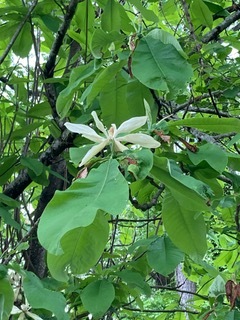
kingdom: Plantae
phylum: Tracheophyta
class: Magnoliopsida
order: Magnoliales
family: Magnoliaceae
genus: Magnolia
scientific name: Magnolia tripetala
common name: Umbrella magnolia
